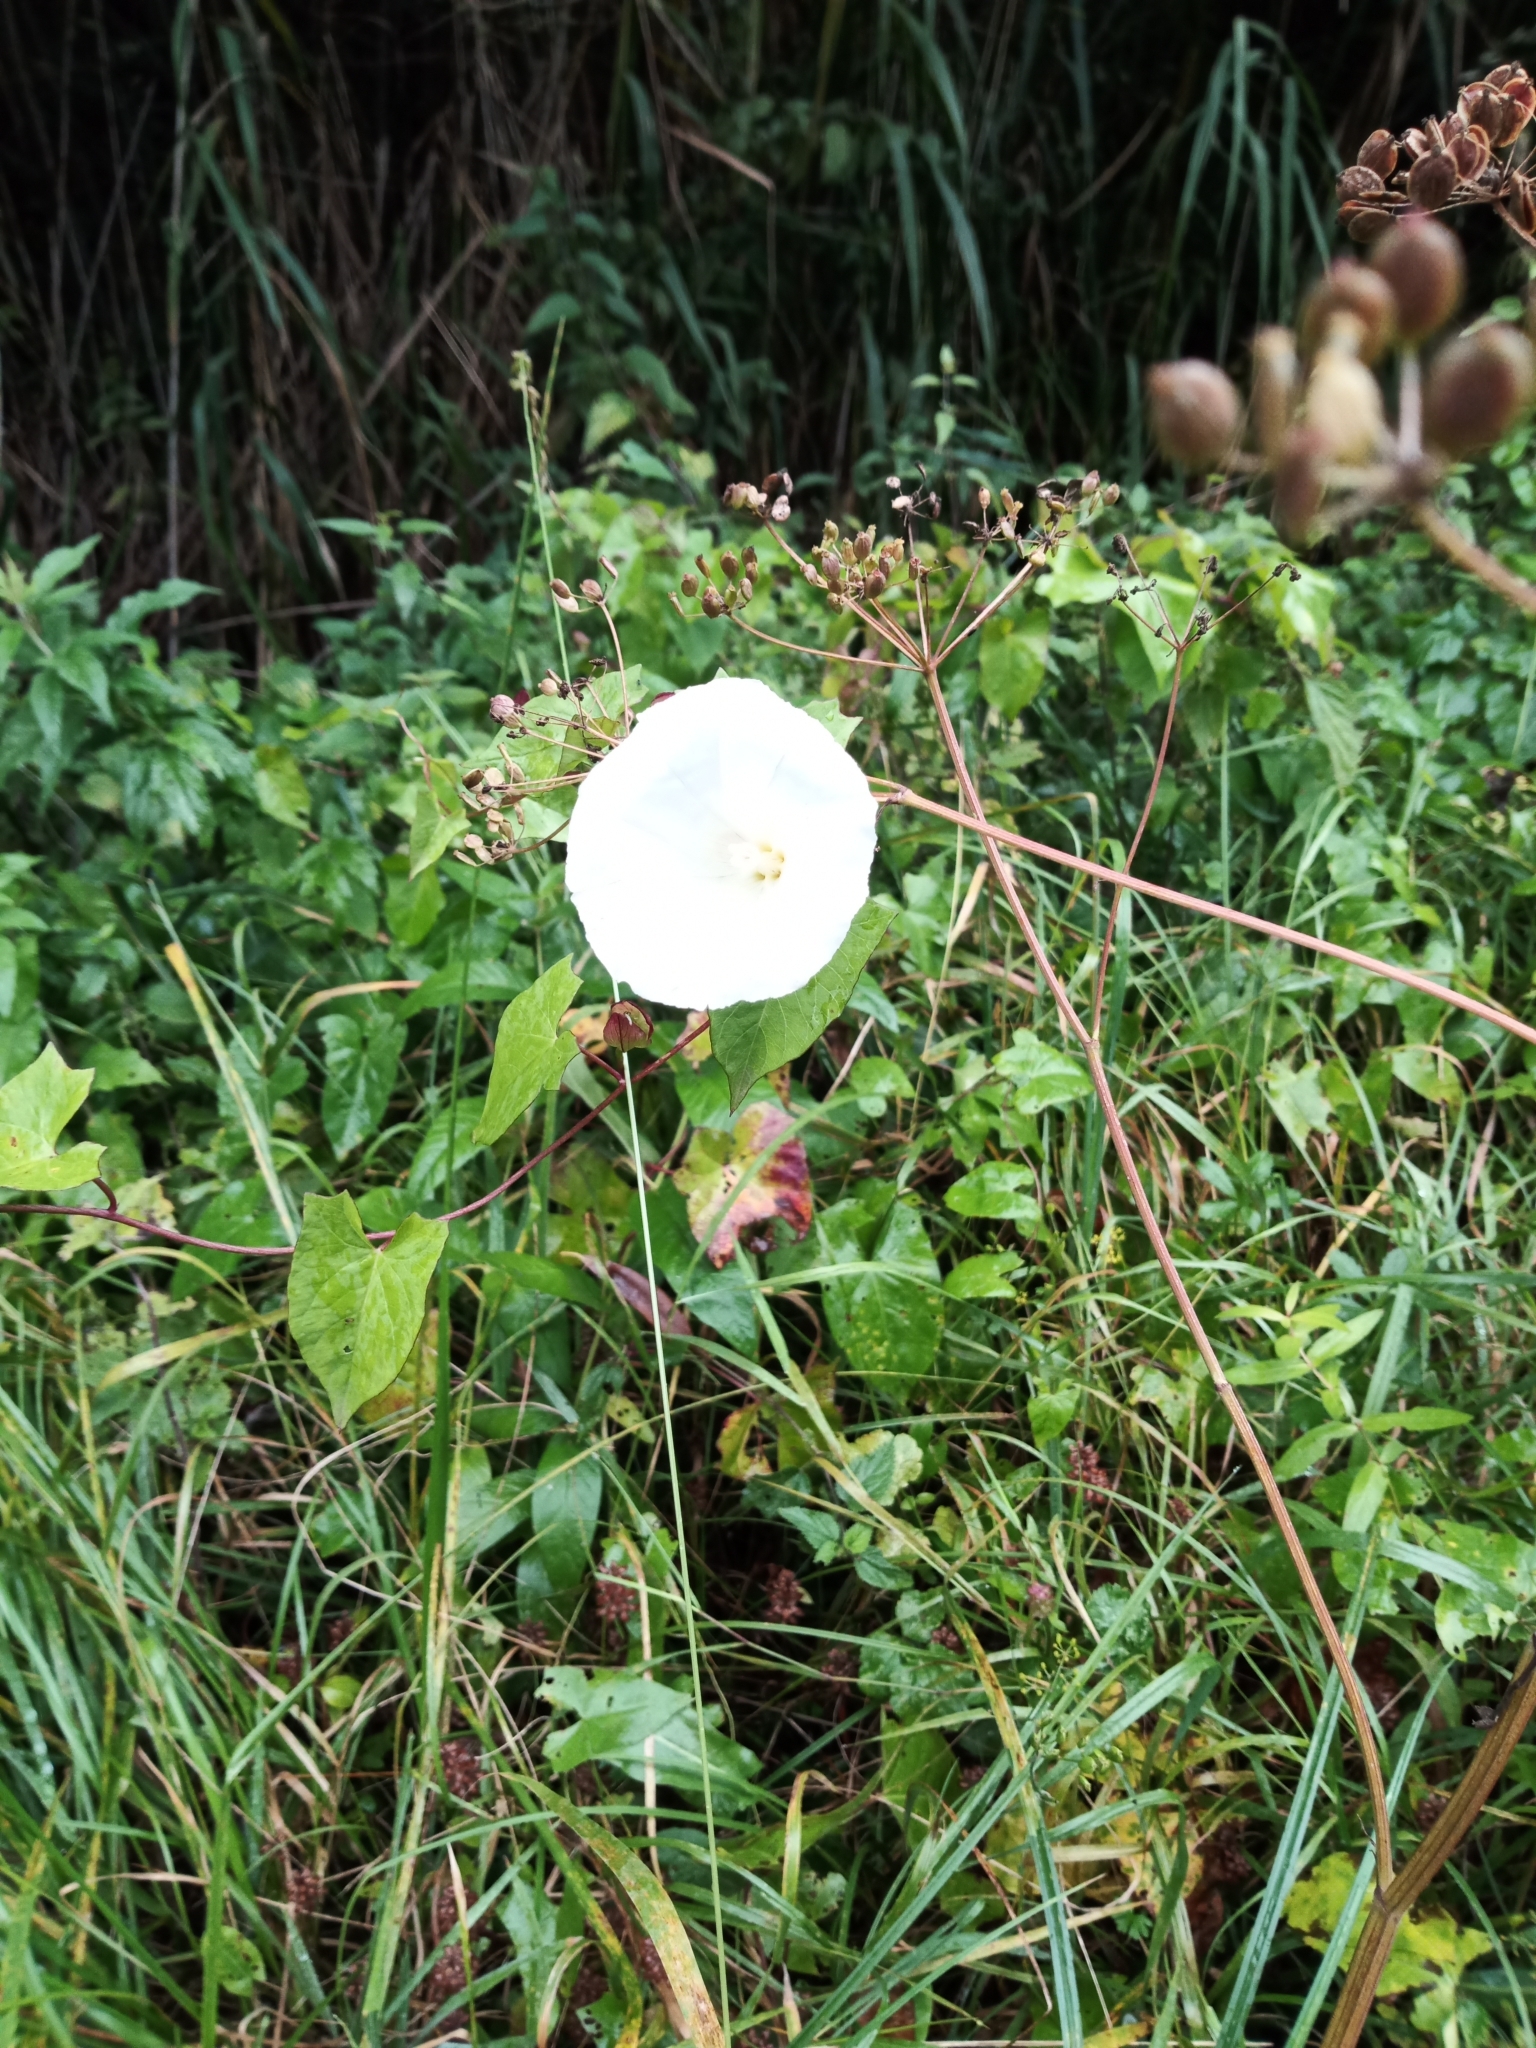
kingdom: Plantae
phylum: Tracheophyta
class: Magnoliopsida
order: Solanales
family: Convolvulaceae
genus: Calystegia
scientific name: Calystegia sepium
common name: Hedge bindweed
